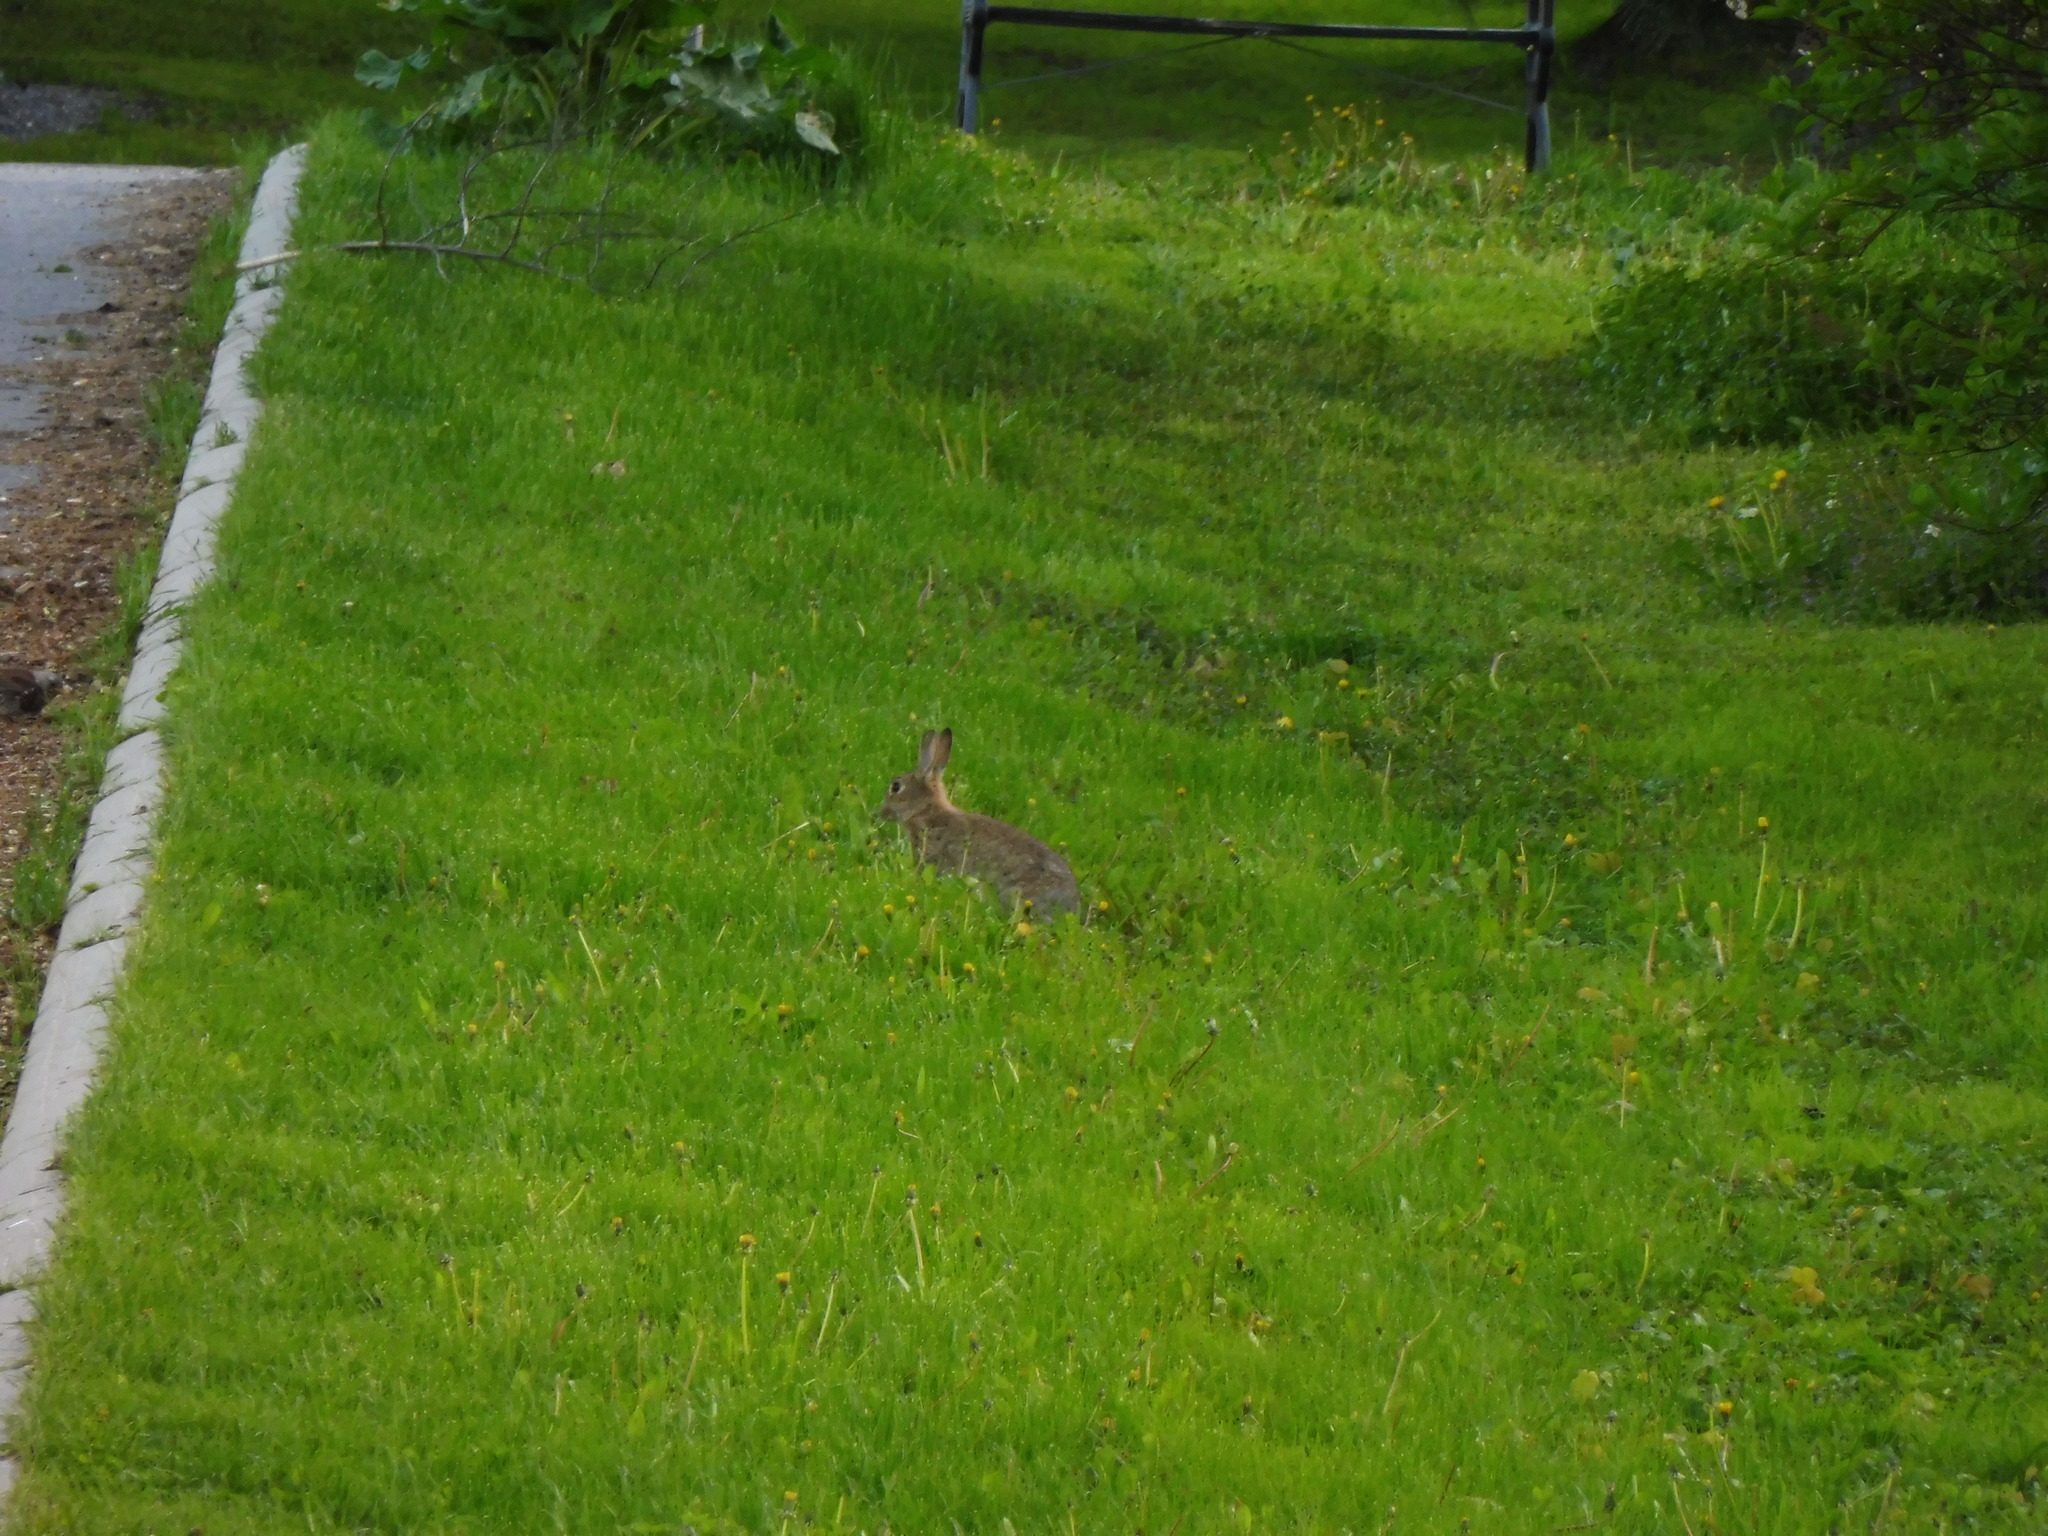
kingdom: Animalia
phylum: Chordata
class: Mammalia
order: Lagomorpha
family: Leporidae
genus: Oryctolagus
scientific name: Oryctolagus cuniculus
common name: European rabbit
